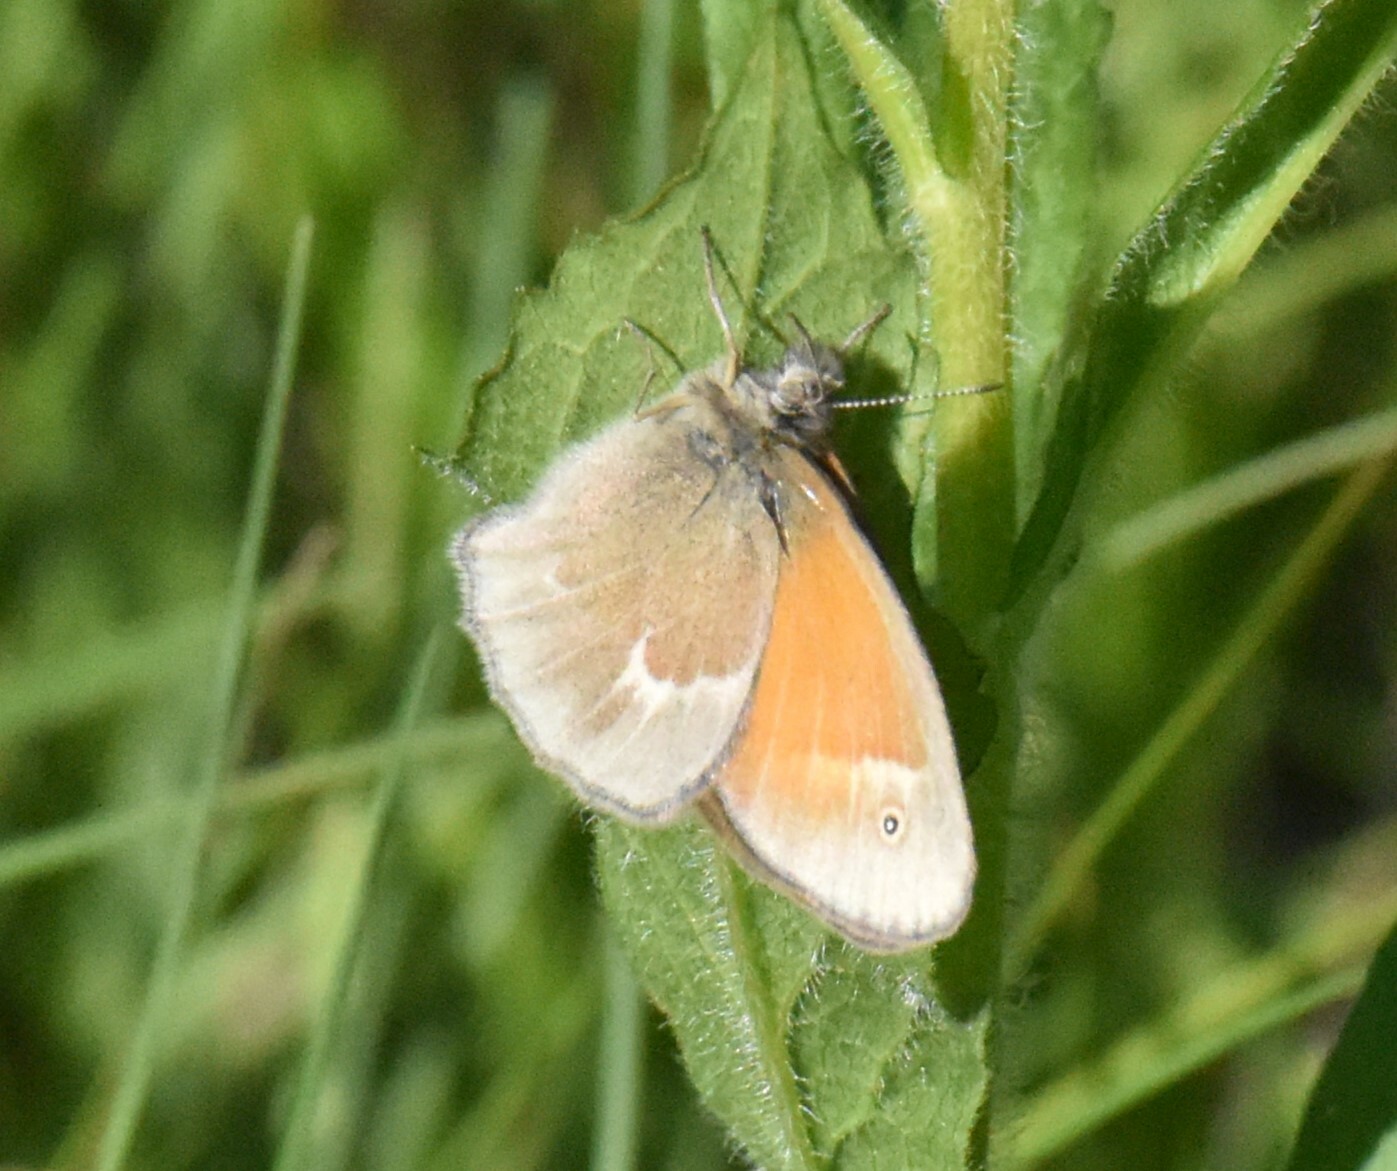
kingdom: Animalia
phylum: Arthropoda
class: Insecta
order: Lepidoptera
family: Nymphalidae
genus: Coenonympha
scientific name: Coenonympha california
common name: Common ringlet
